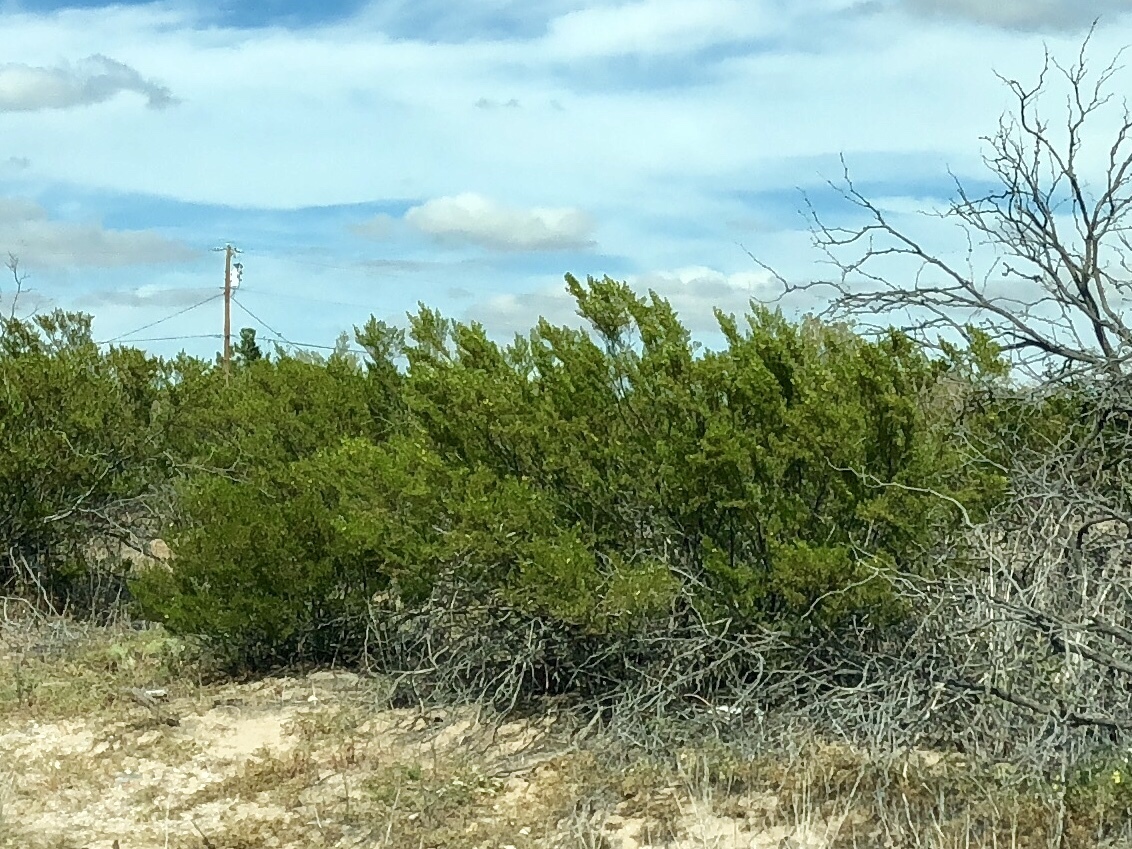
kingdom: Plantae
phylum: Tracheophyta
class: Magnoliopsida
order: Zygophyllales
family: Zygophyllaceae
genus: Larrea
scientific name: Larrea tridentata
